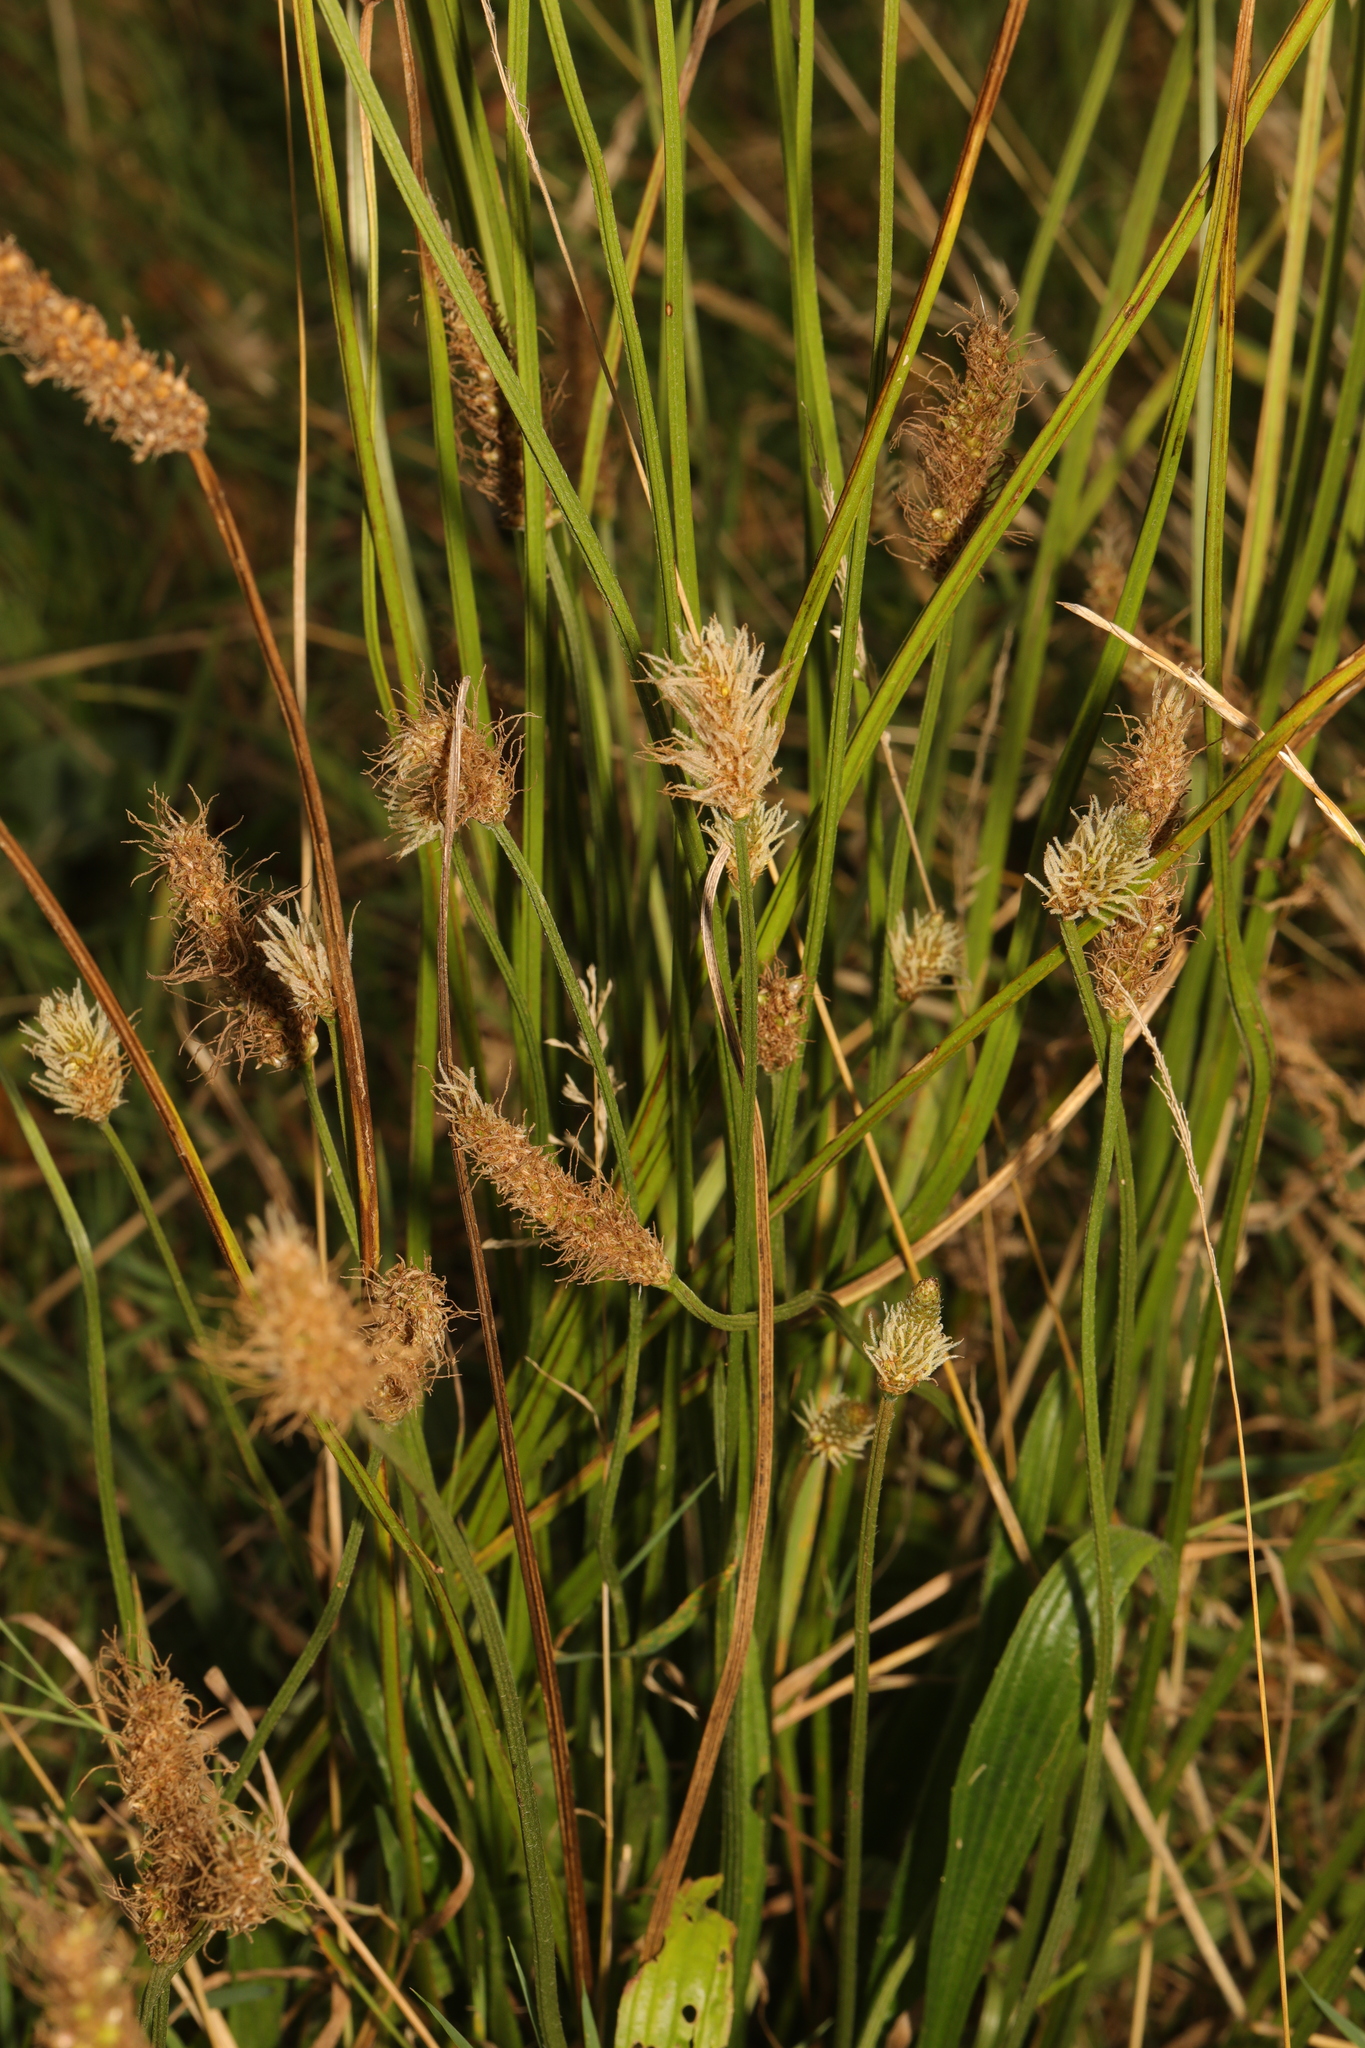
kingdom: Plantae
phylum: Tracheophyta
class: Magnoliopsida
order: Lamiales
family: Plantaginaceae
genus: Plantago
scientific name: Plantago lanceolata
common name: Ribwort plantain
